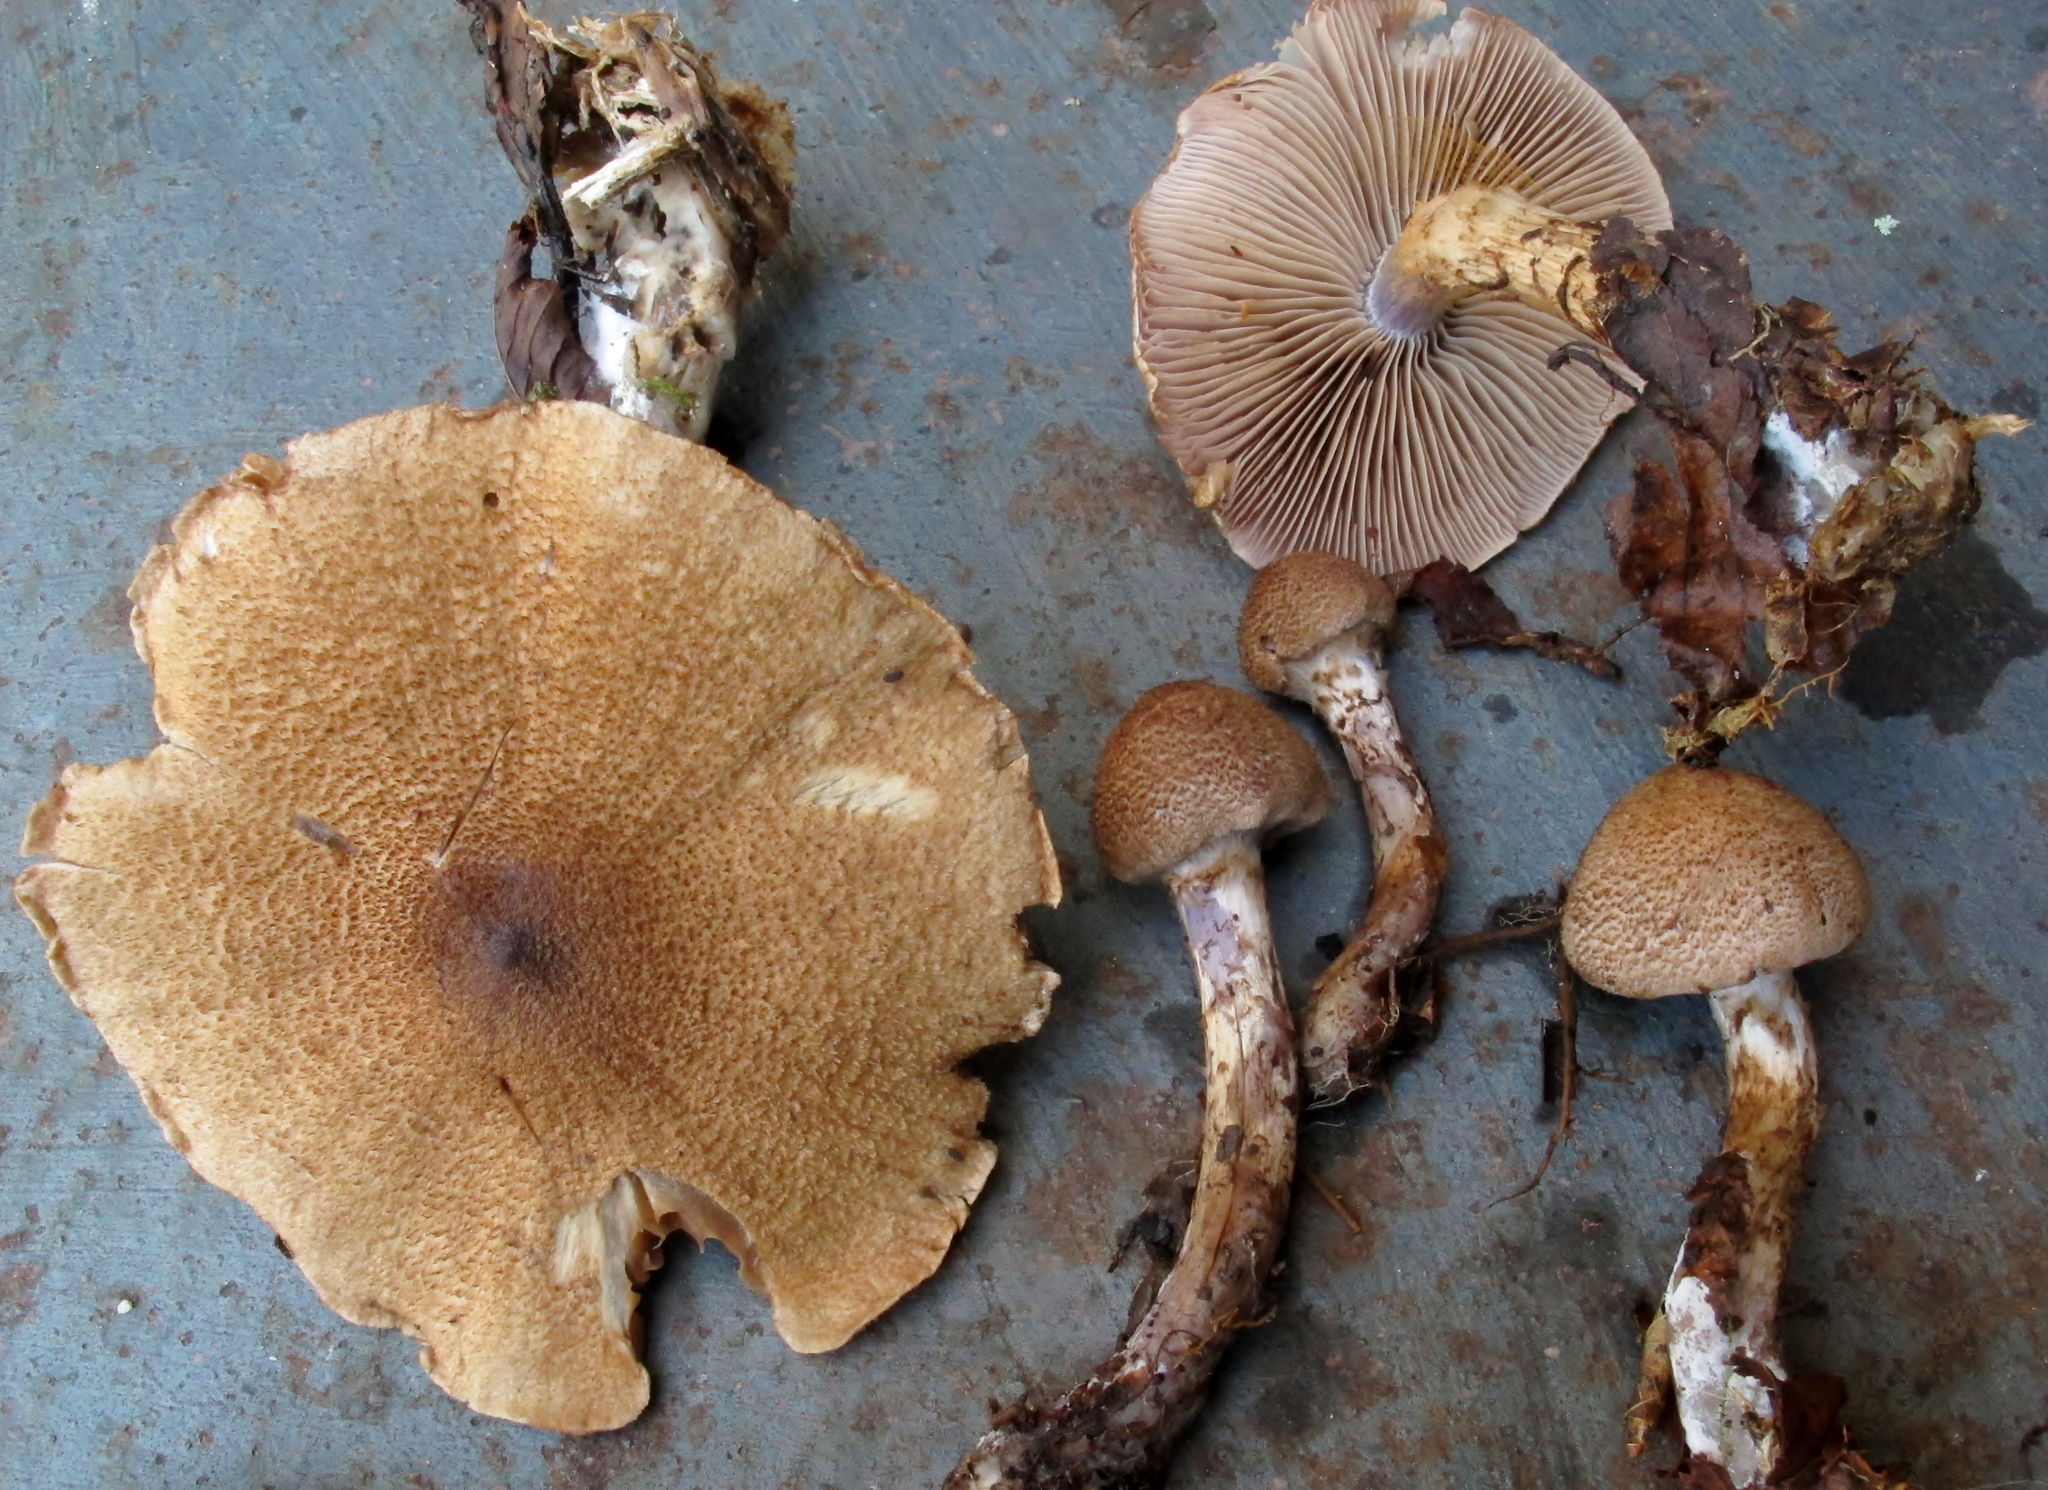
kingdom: Fungi
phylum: Basidiomycota
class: Agaricomycetes
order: Agaricales
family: Cortinariaceae
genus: Cortinarius
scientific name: Cortinarius pholideus
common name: Scaly webcap
